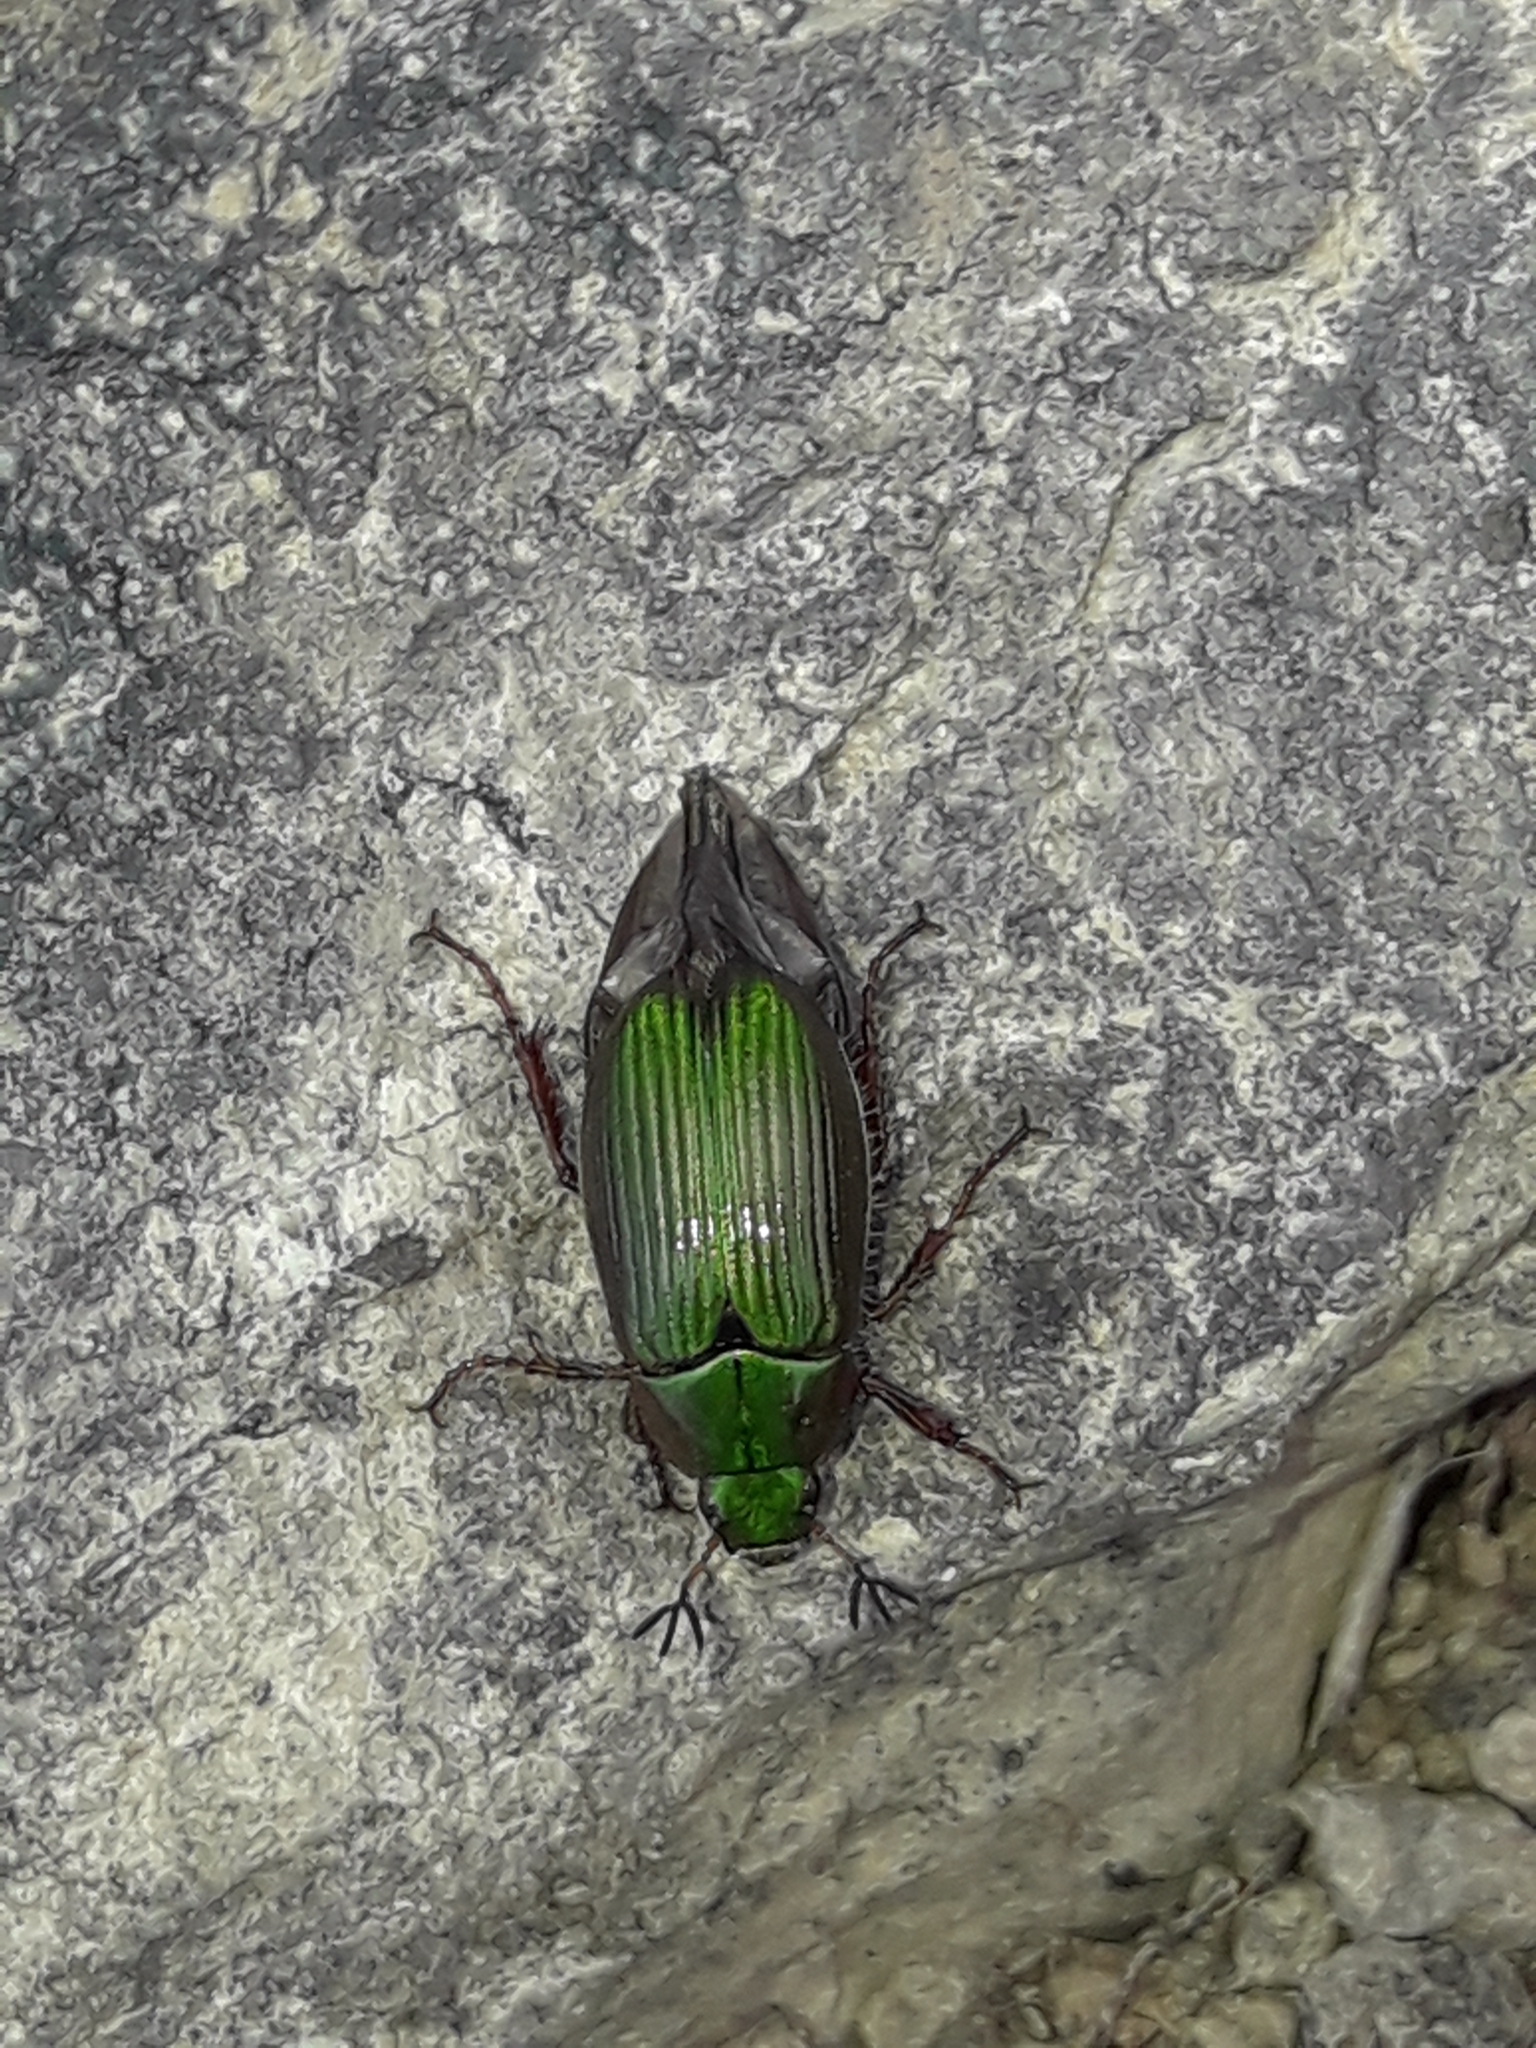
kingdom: Animalia
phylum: Arthropoda
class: Insecta
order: Coleoptera
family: Scarabaeidae
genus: Pyronota
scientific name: Pyronota
